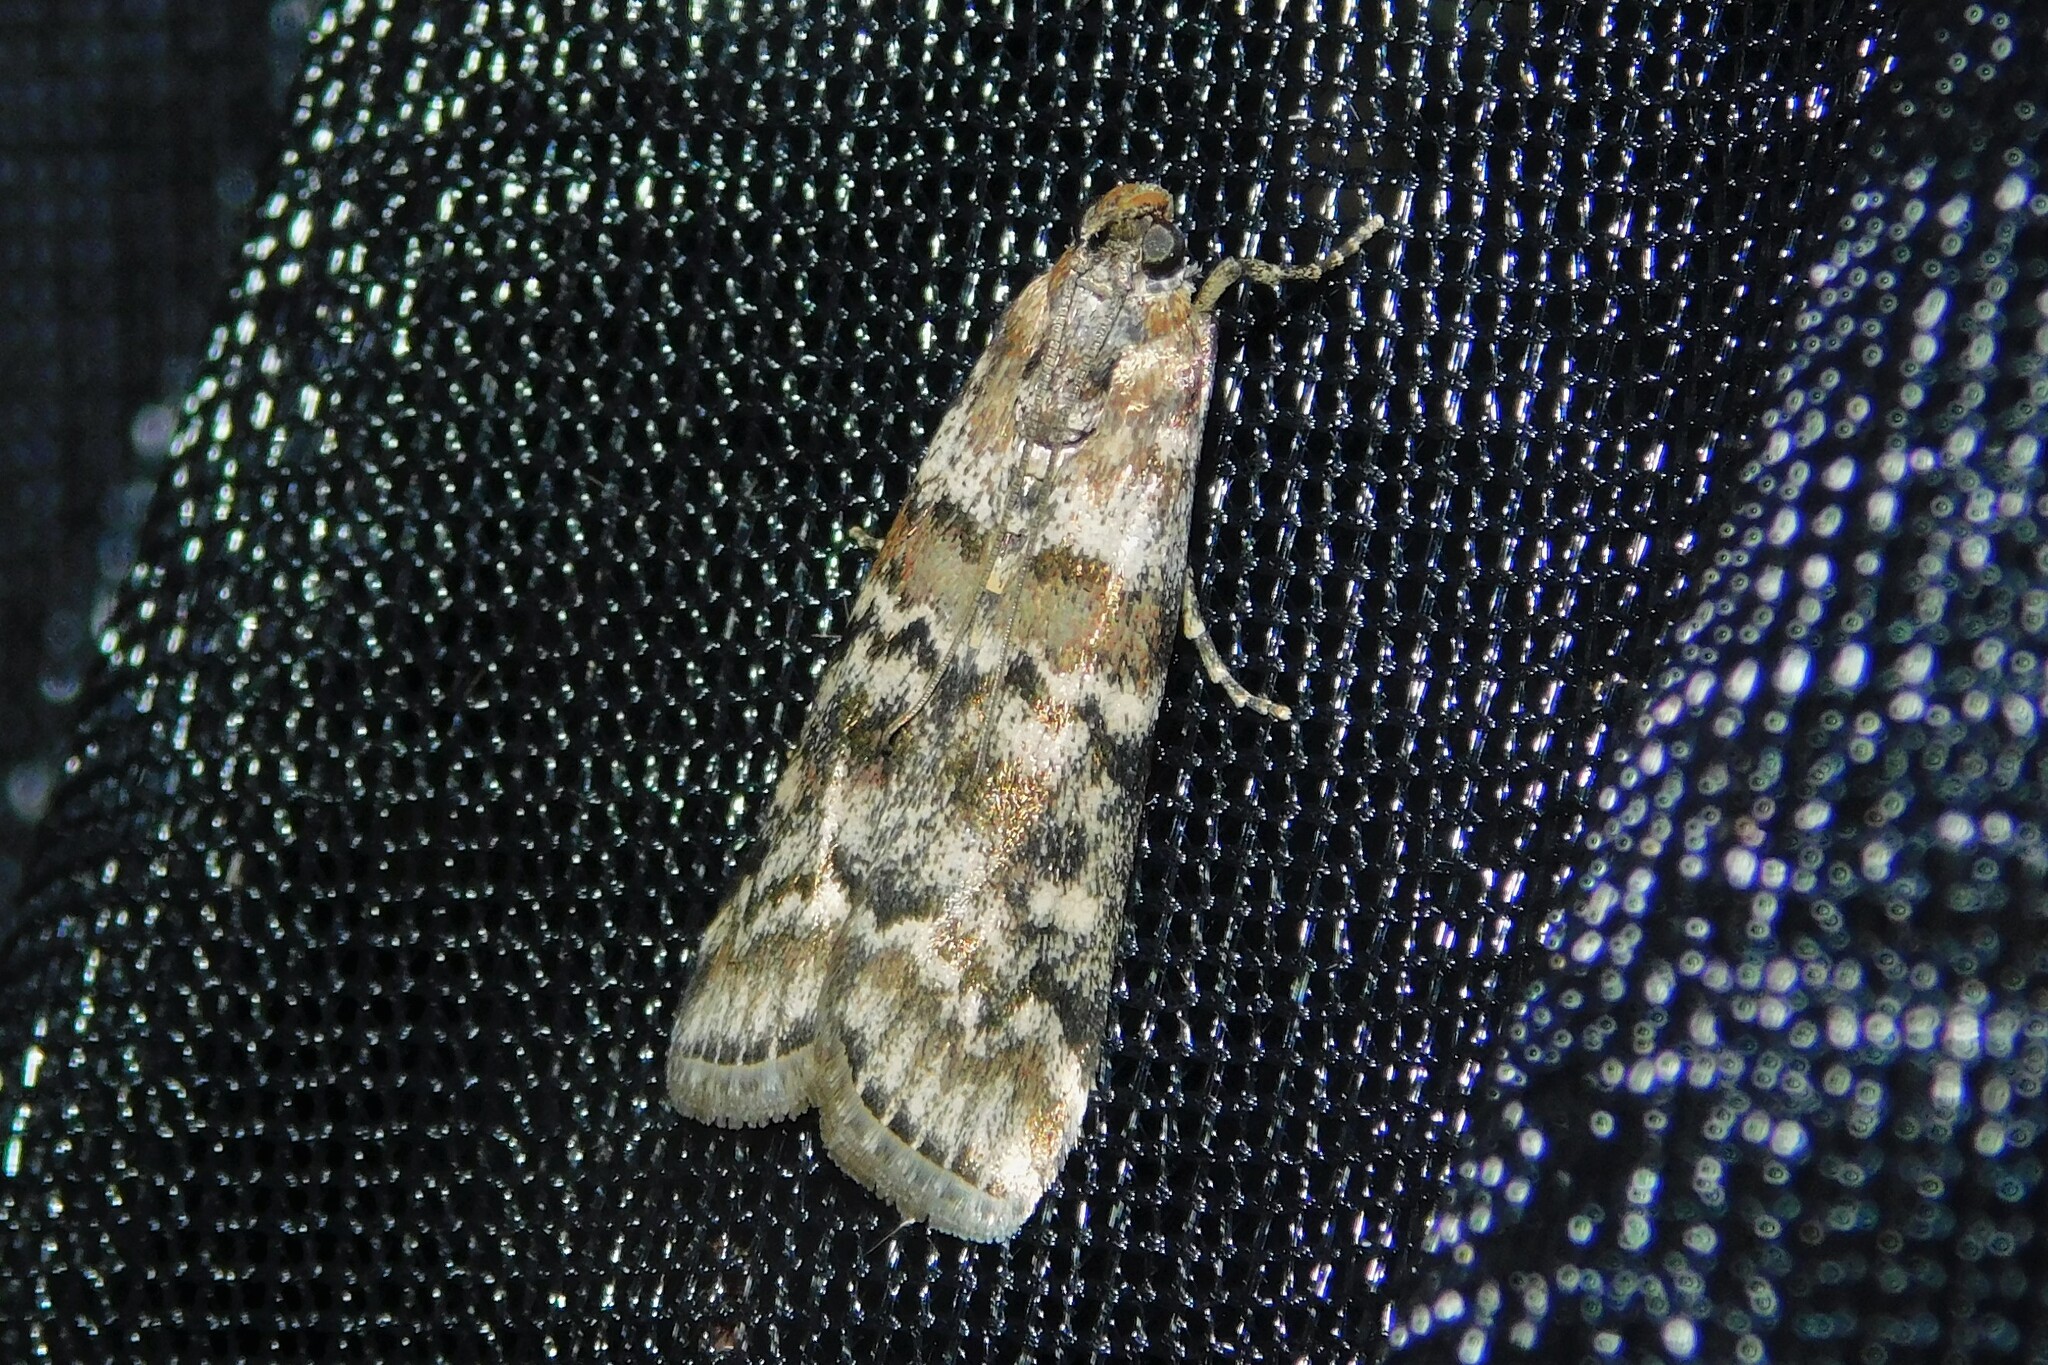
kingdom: Animalia
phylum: Arthropoda
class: Insecta
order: Lepidoptera
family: Pyralidae
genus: Dioryctria
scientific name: Dioryctria abietella
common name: Dark pine knot-horn
